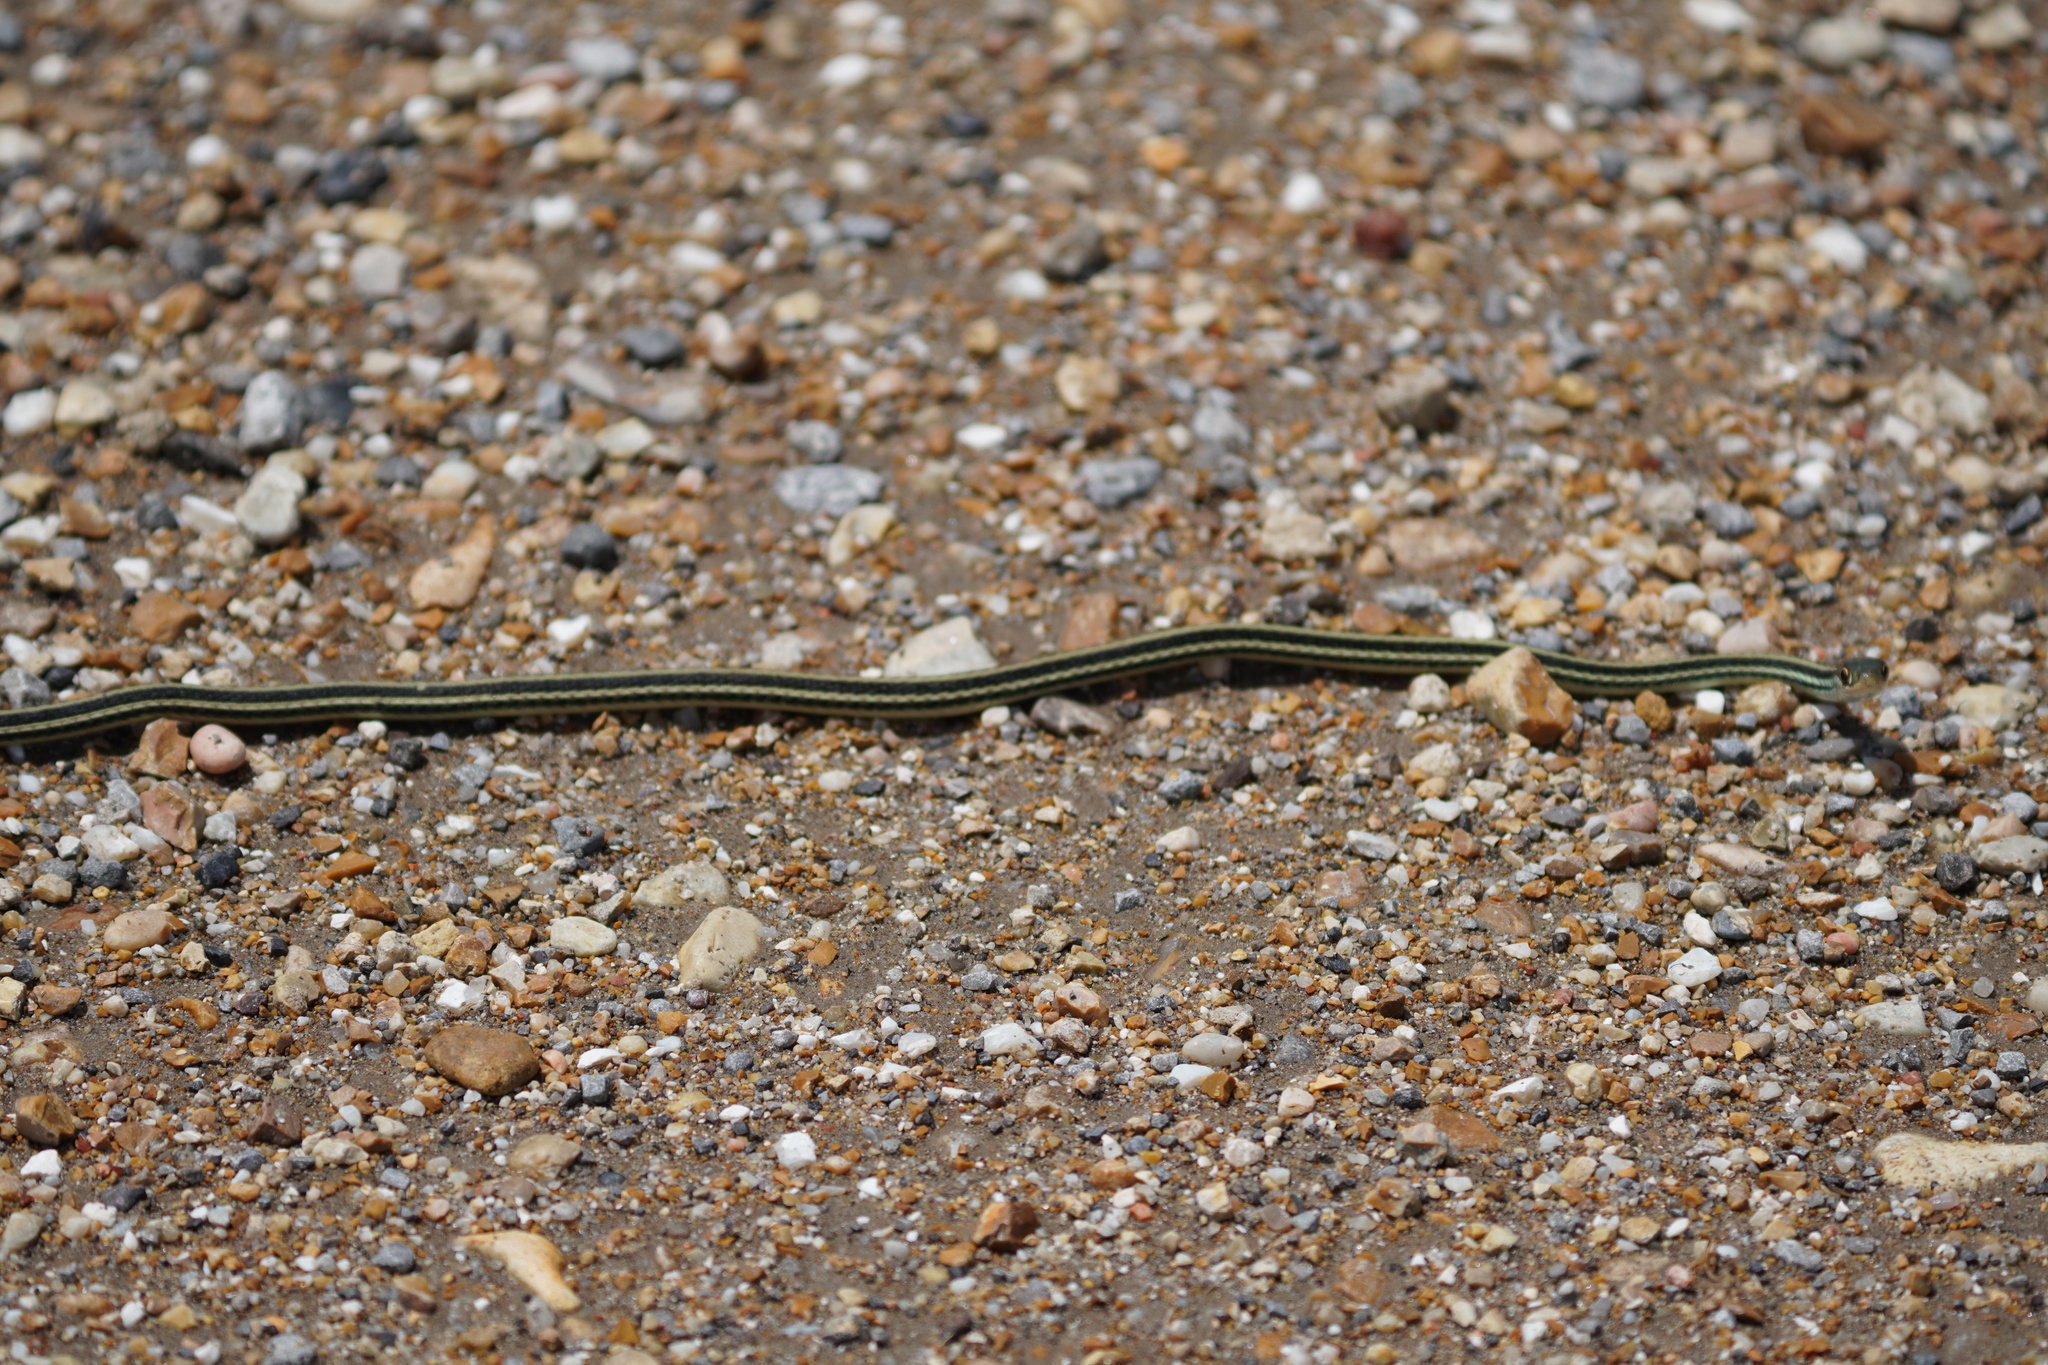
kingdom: Animalia
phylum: Chordata
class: Squamata
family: Colubridae
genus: Thamnophis
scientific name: Thamnophis proximus
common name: Western ribbon snake
